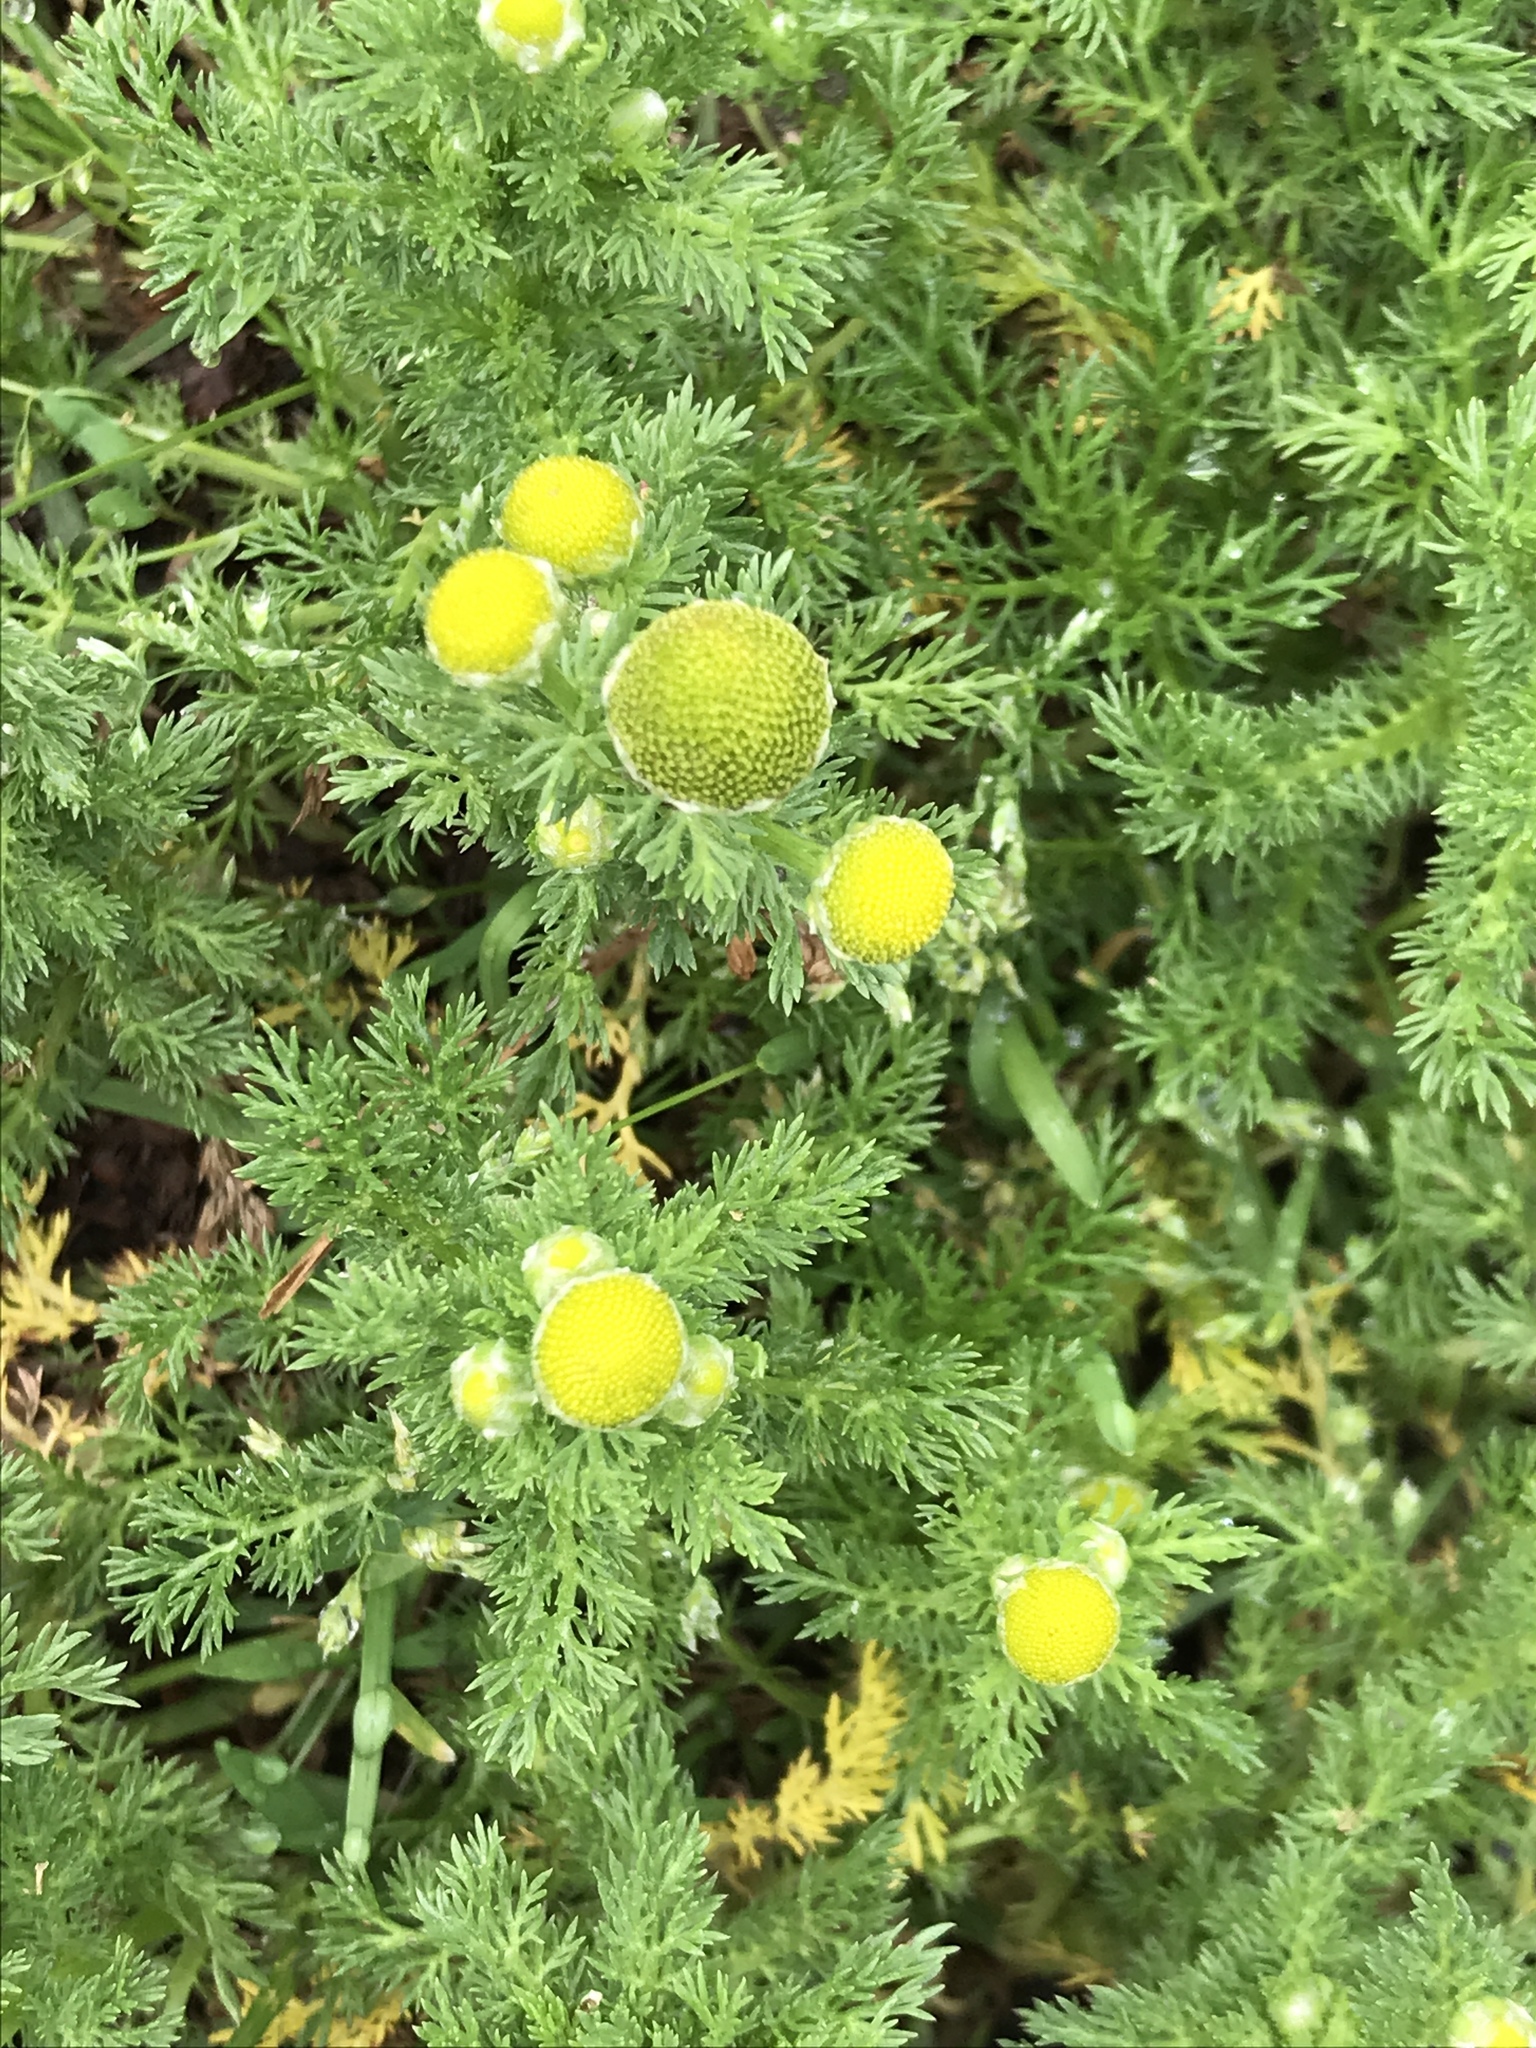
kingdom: Plantae
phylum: Tracheophyta
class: Magnoliopsida
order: Asterales
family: Asteraceae
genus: Matricaria
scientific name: Matricaria discoidea
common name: Disc mayweed
